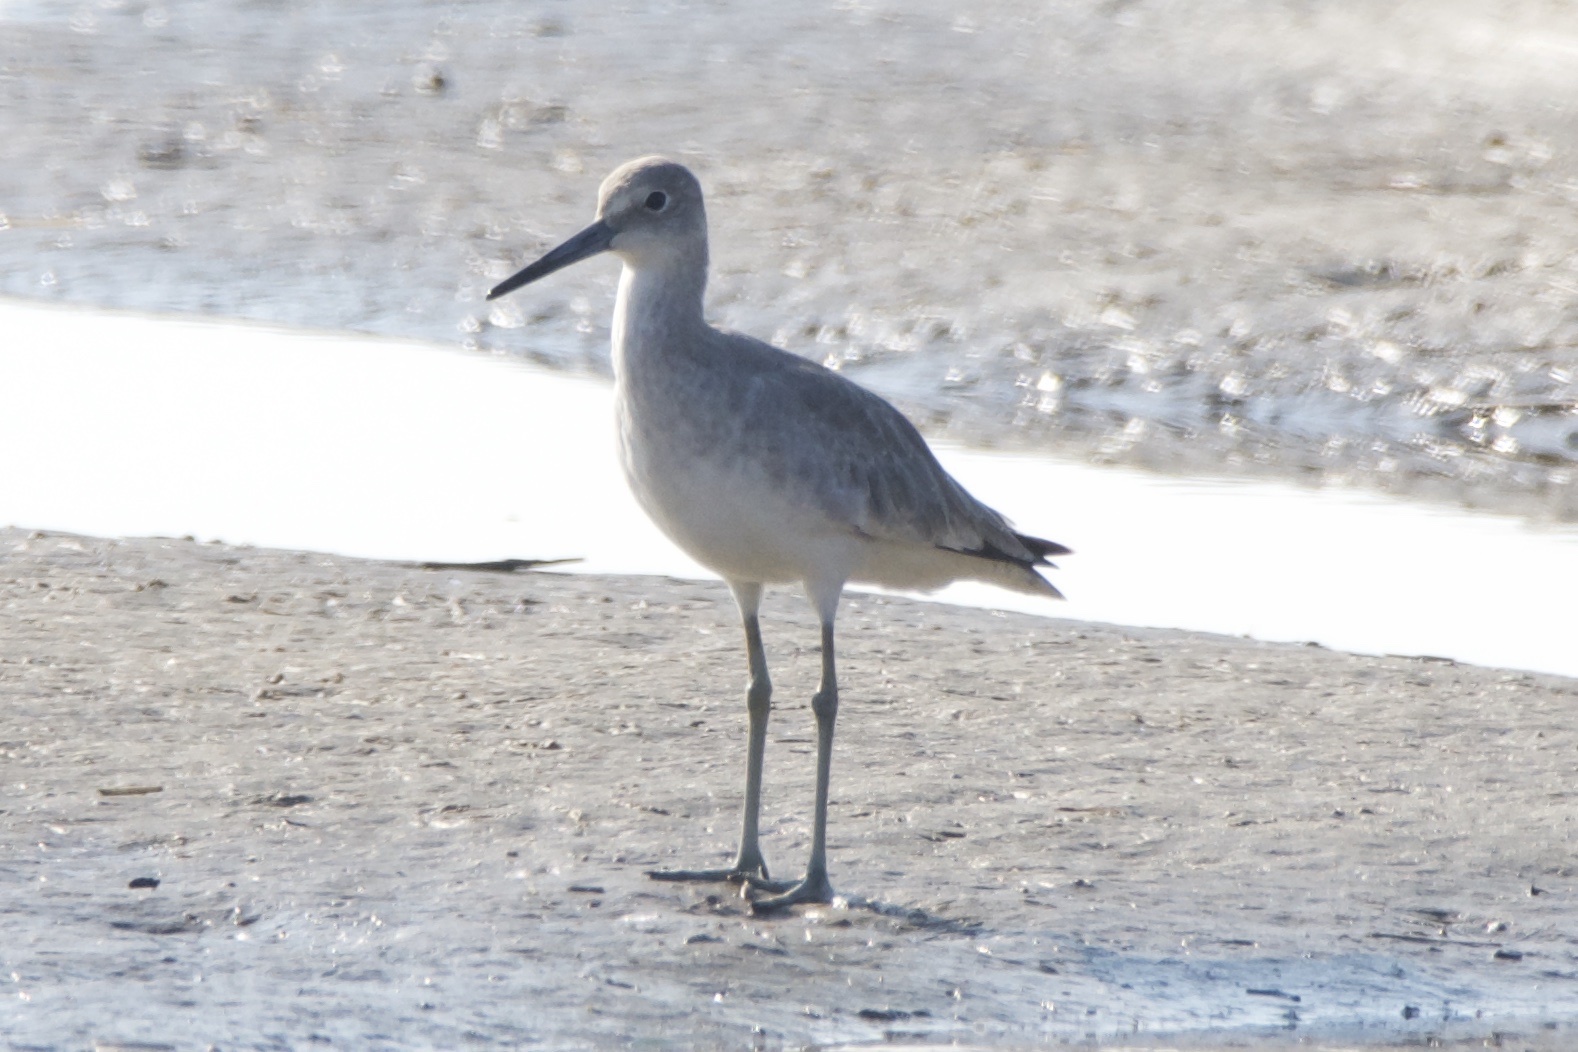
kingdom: Animalia
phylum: Chordata
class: Aves
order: Charadriiformes
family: Scolopacidae
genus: Tringa
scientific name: Tringa semipalmata
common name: Willet
